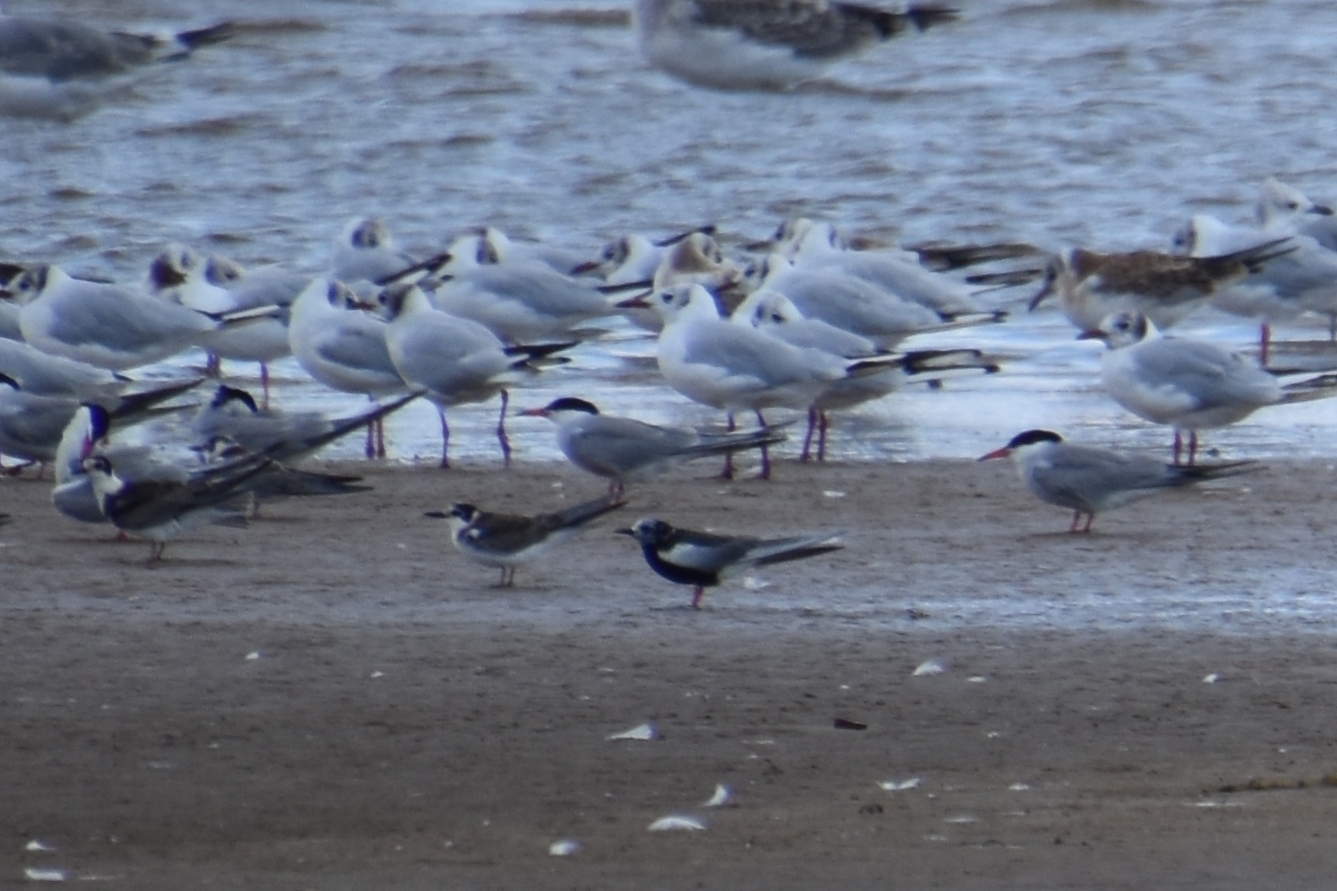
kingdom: Animalia
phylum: Chordata
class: Aves
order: Charadriiformes
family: Laridae
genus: Chlidonias
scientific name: Chlidonias leucopterus
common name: White-winged tern
